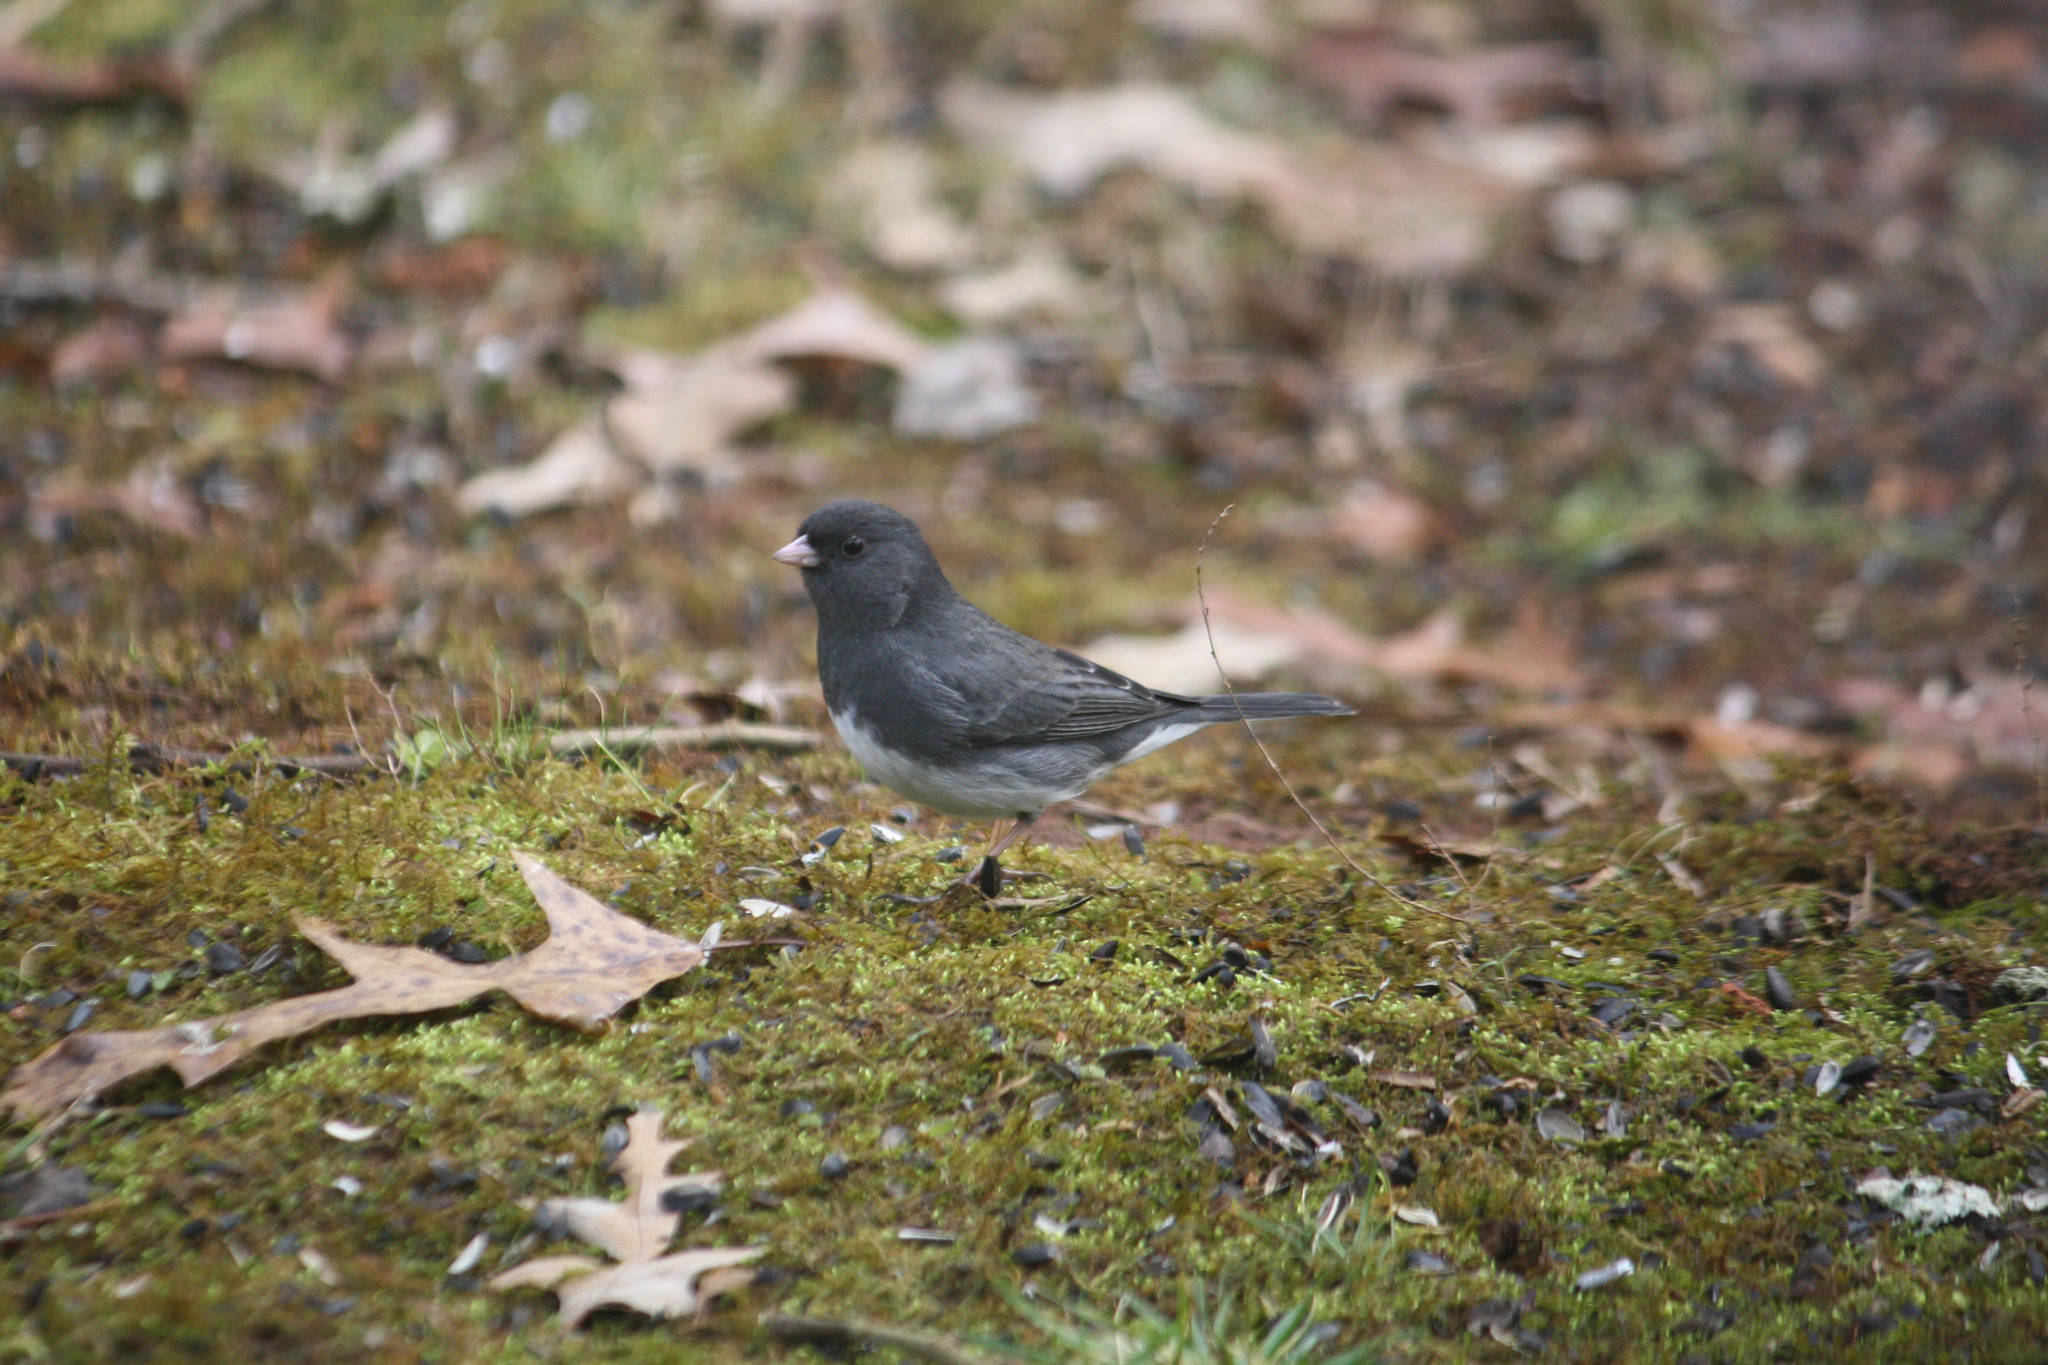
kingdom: Animalia
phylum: Chordata
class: Aves
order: Passeriformes
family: Passerellidae
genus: Junco
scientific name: Junco hyemalis
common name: Dark-eyed junco
